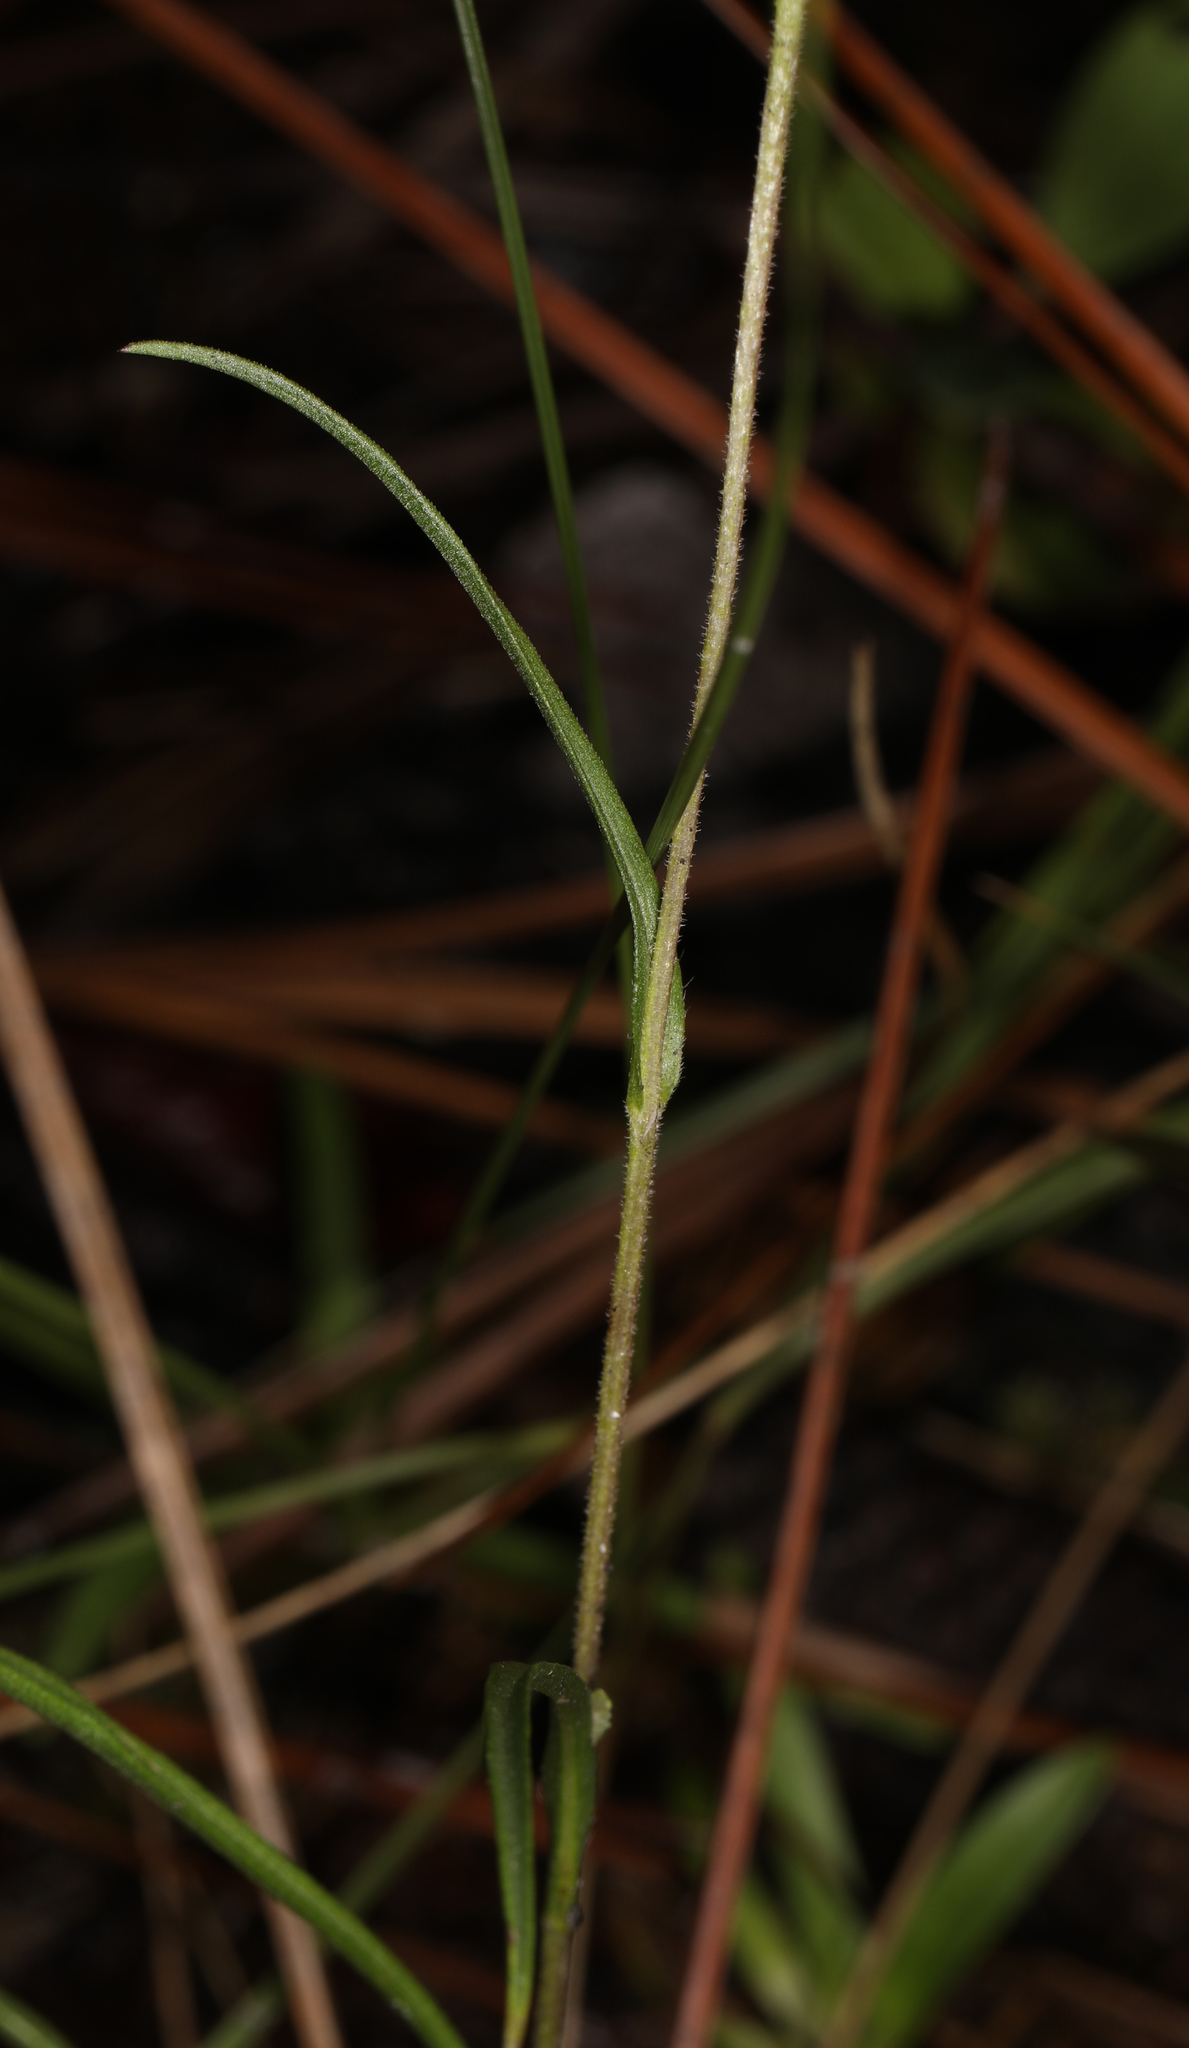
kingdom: Plantae
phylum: Tracheophyta
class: Magnoliopsida
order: Asterales
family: Asteraceae
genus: Coreopsis
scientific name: Coreopsis lanceolata
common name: Garden coreopsis
